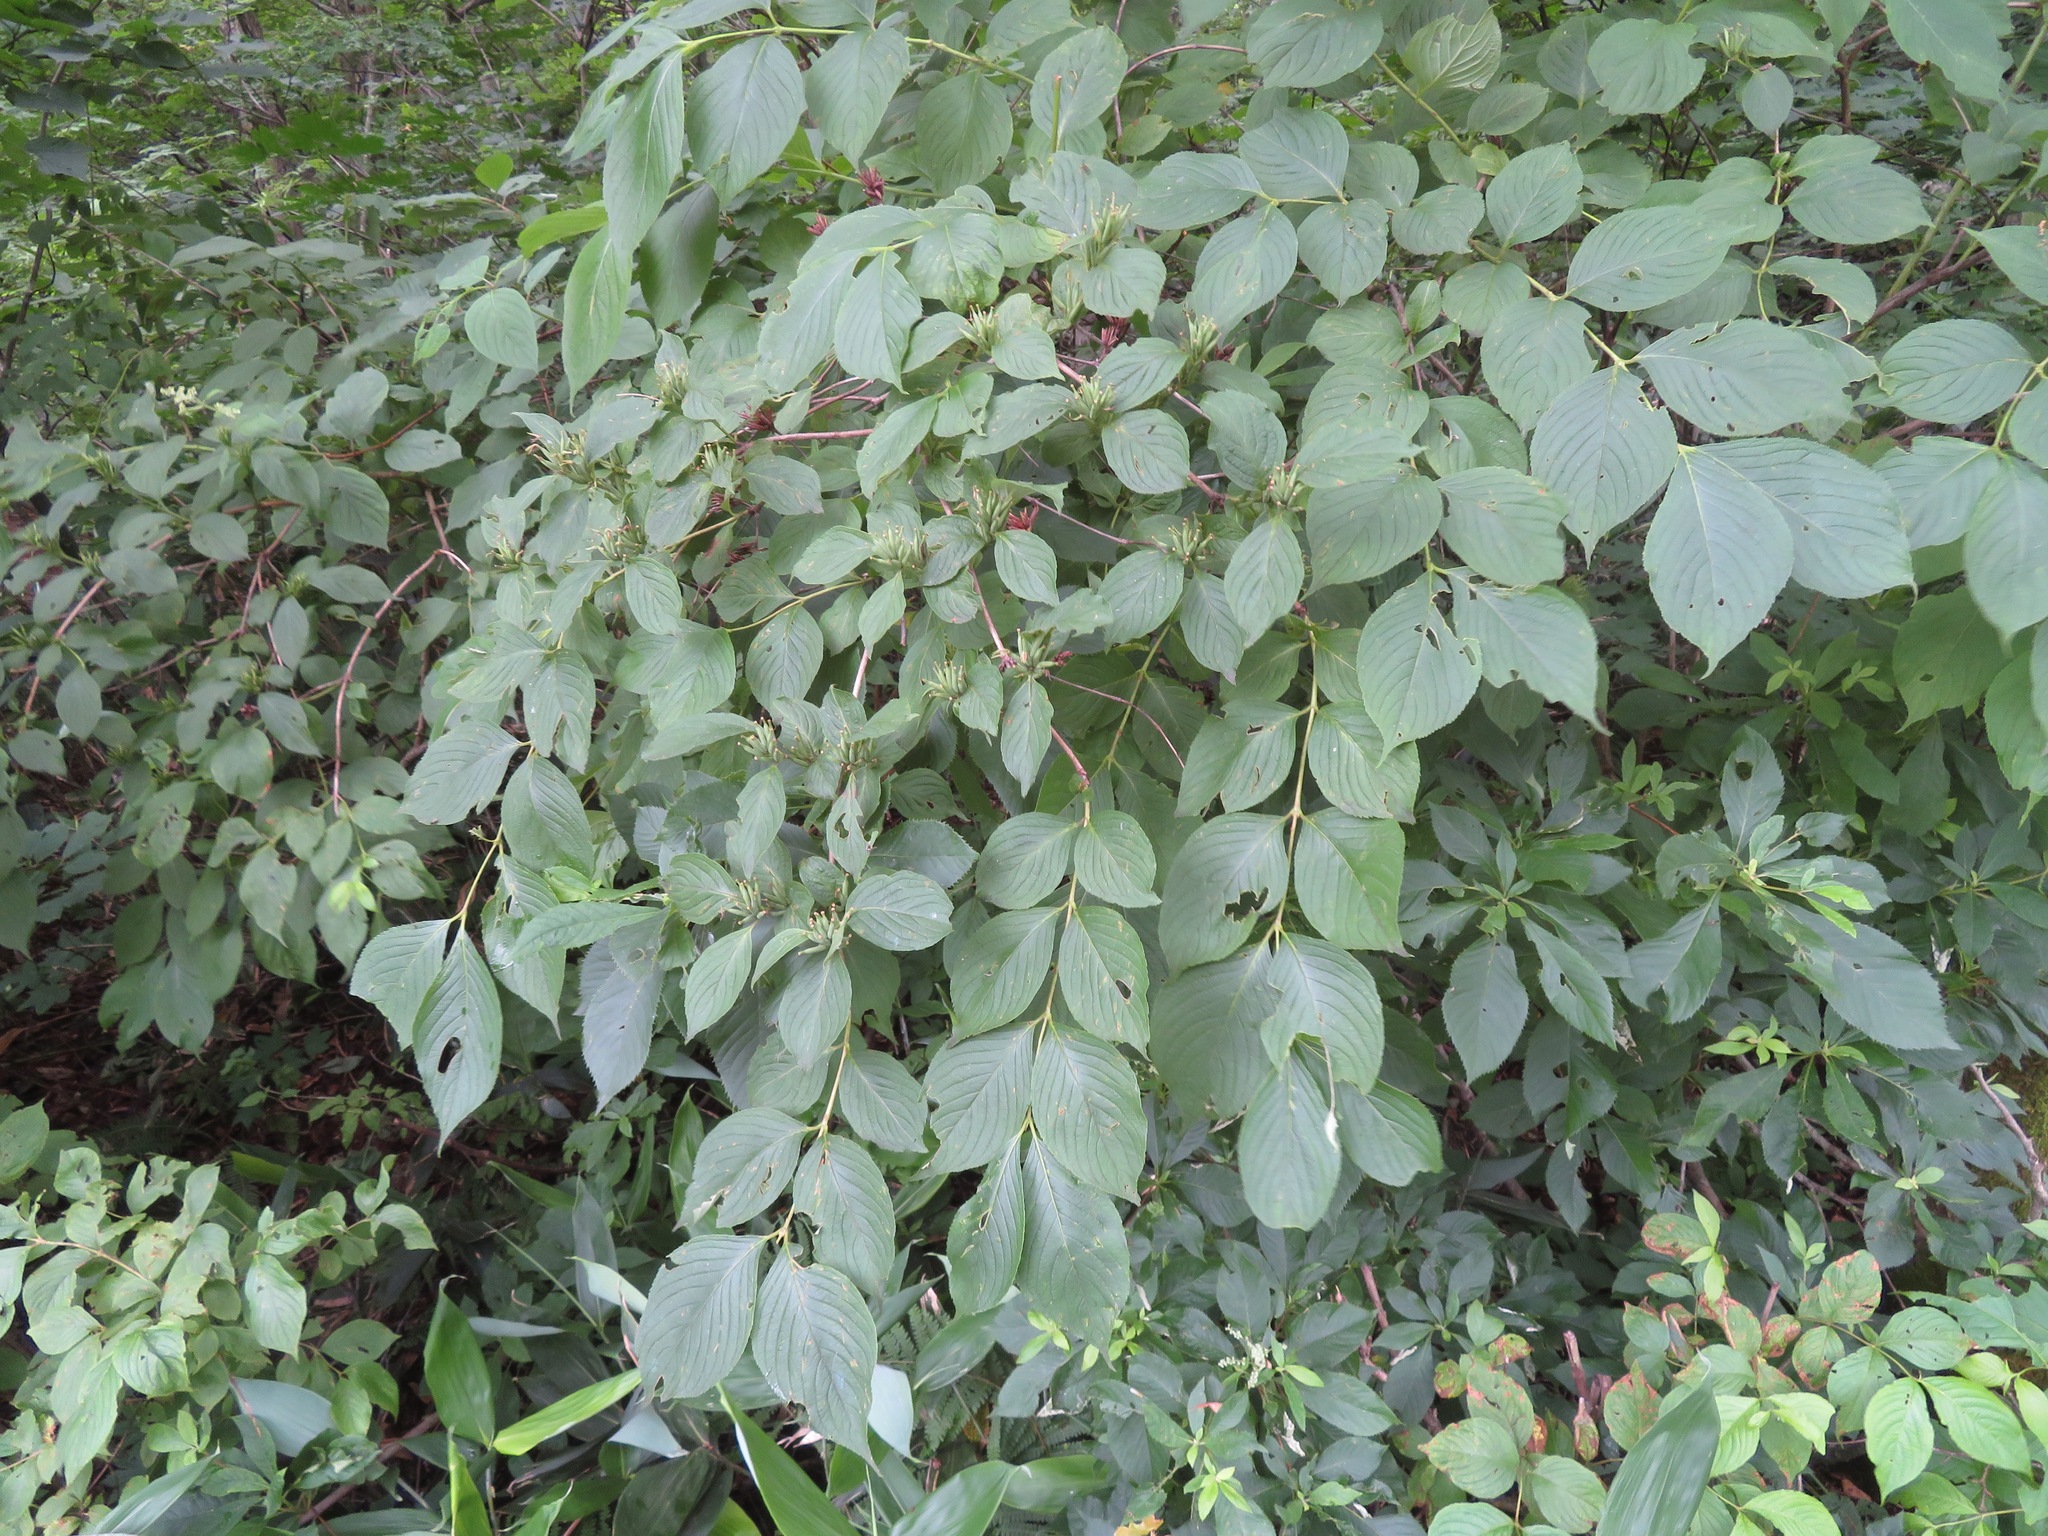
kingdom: Plantae
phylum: Tracheophyta
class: Magnoliopsida
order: Dipsacales
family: Caprifoliaceae
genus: Weigela
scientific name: Weigela hortensis
